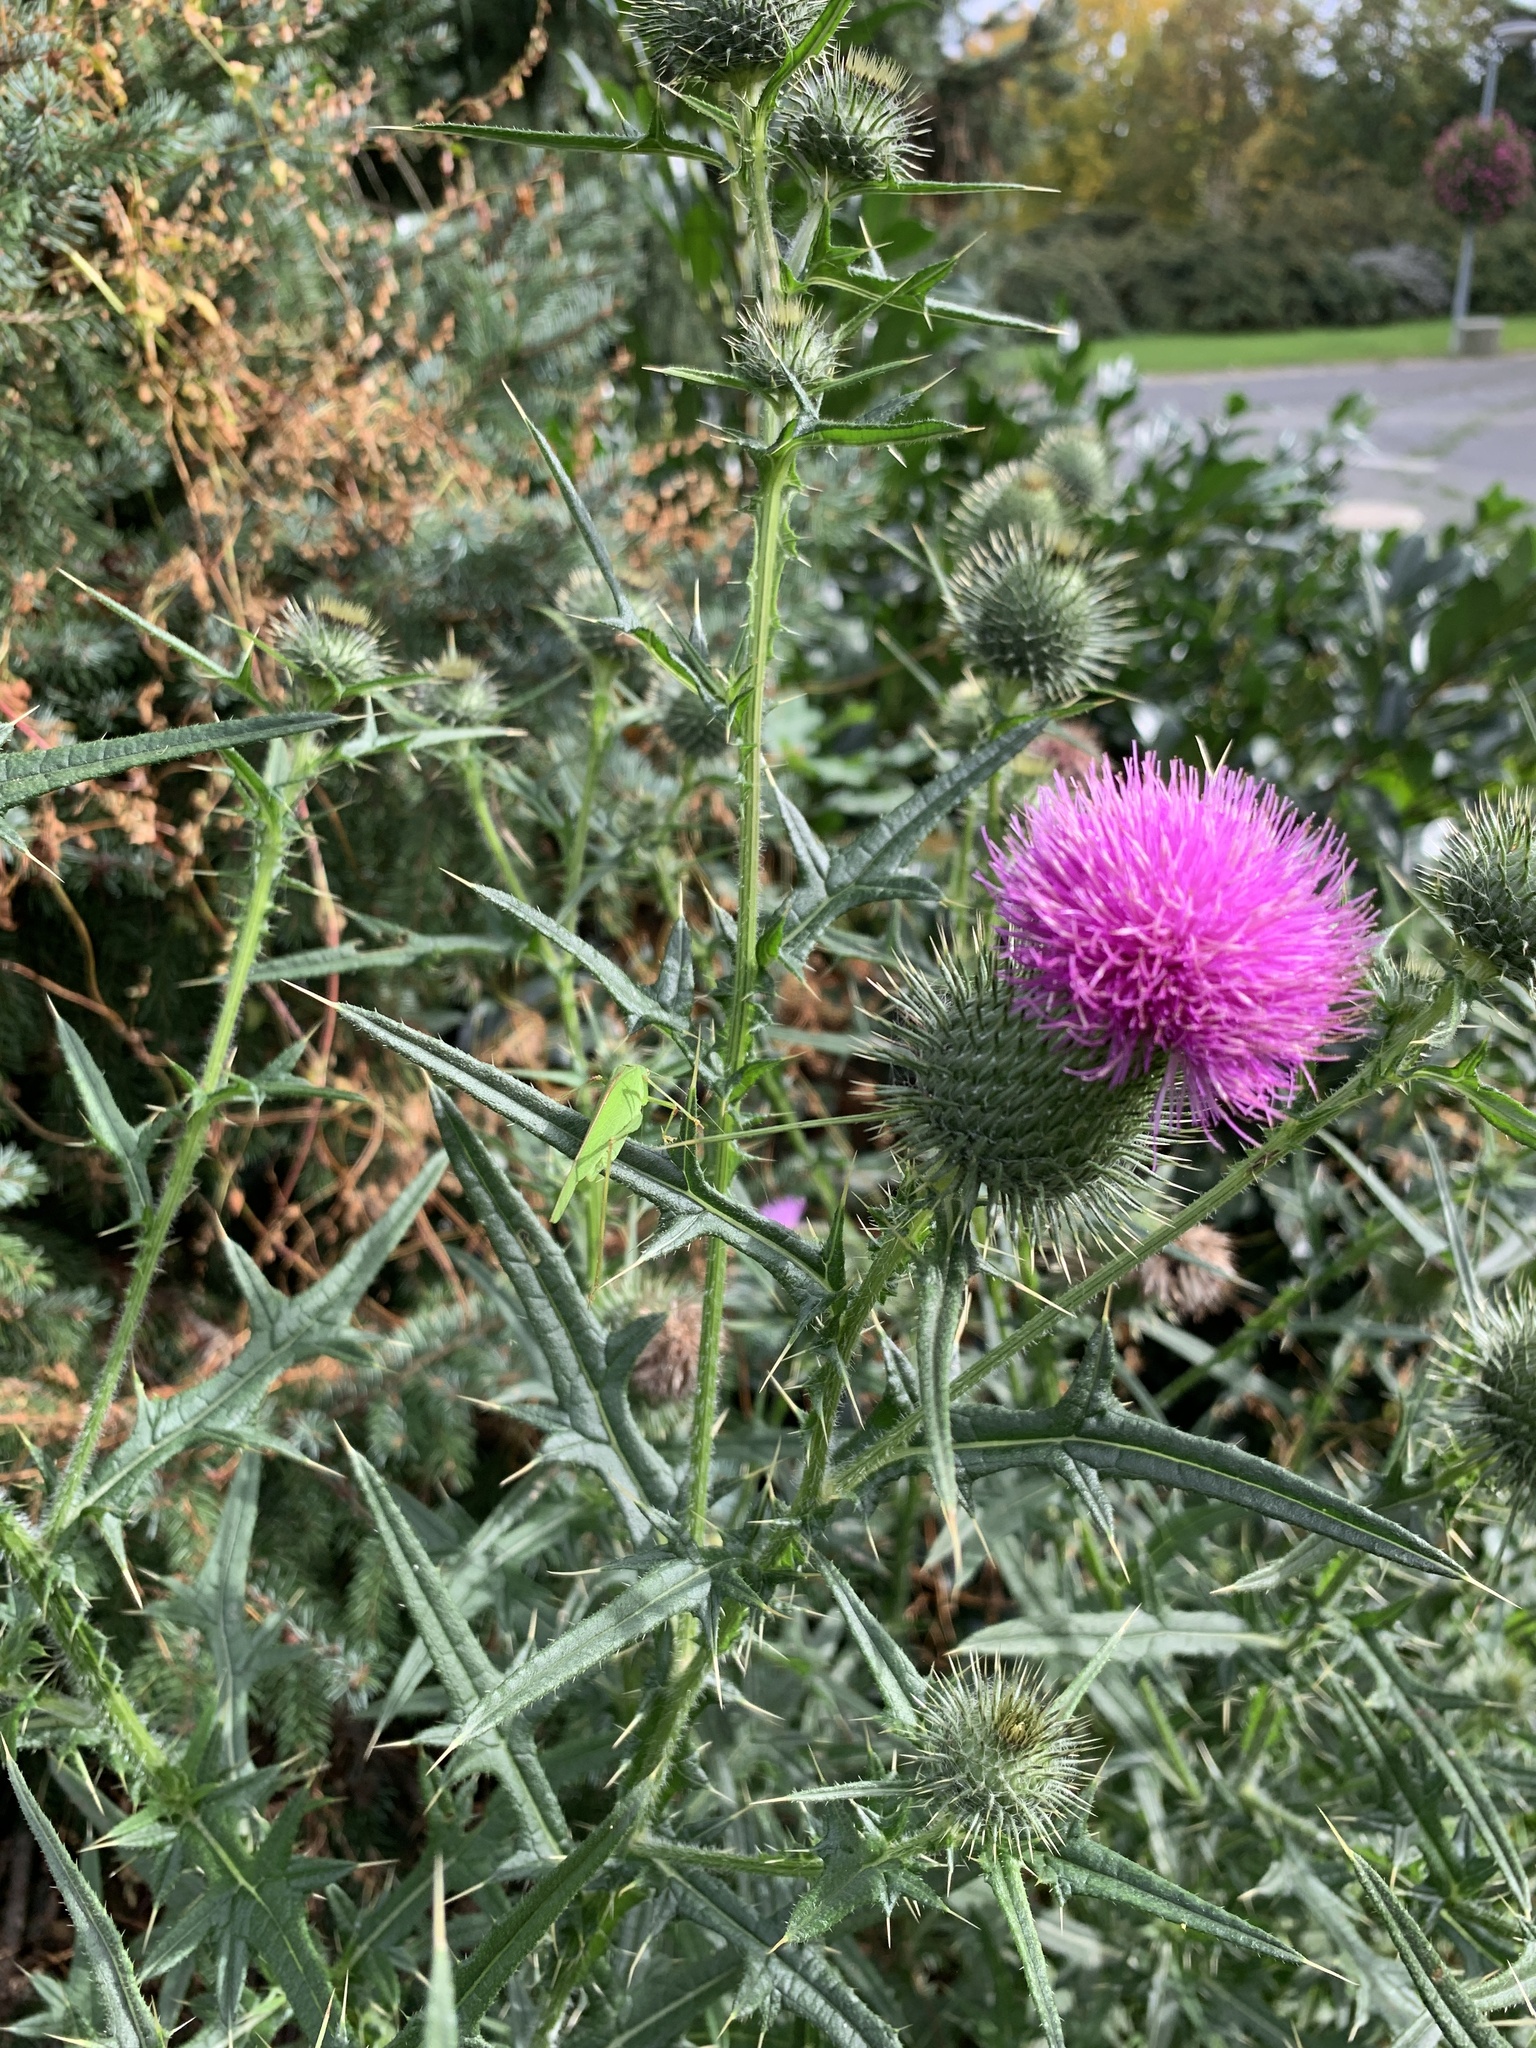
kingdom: Plantae
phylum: Tracheophyta
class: Magnoliopsida
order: Asterales
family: Asteraceae
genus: Cirsium
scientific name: Cirsium vulgare
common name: Bull thistle
